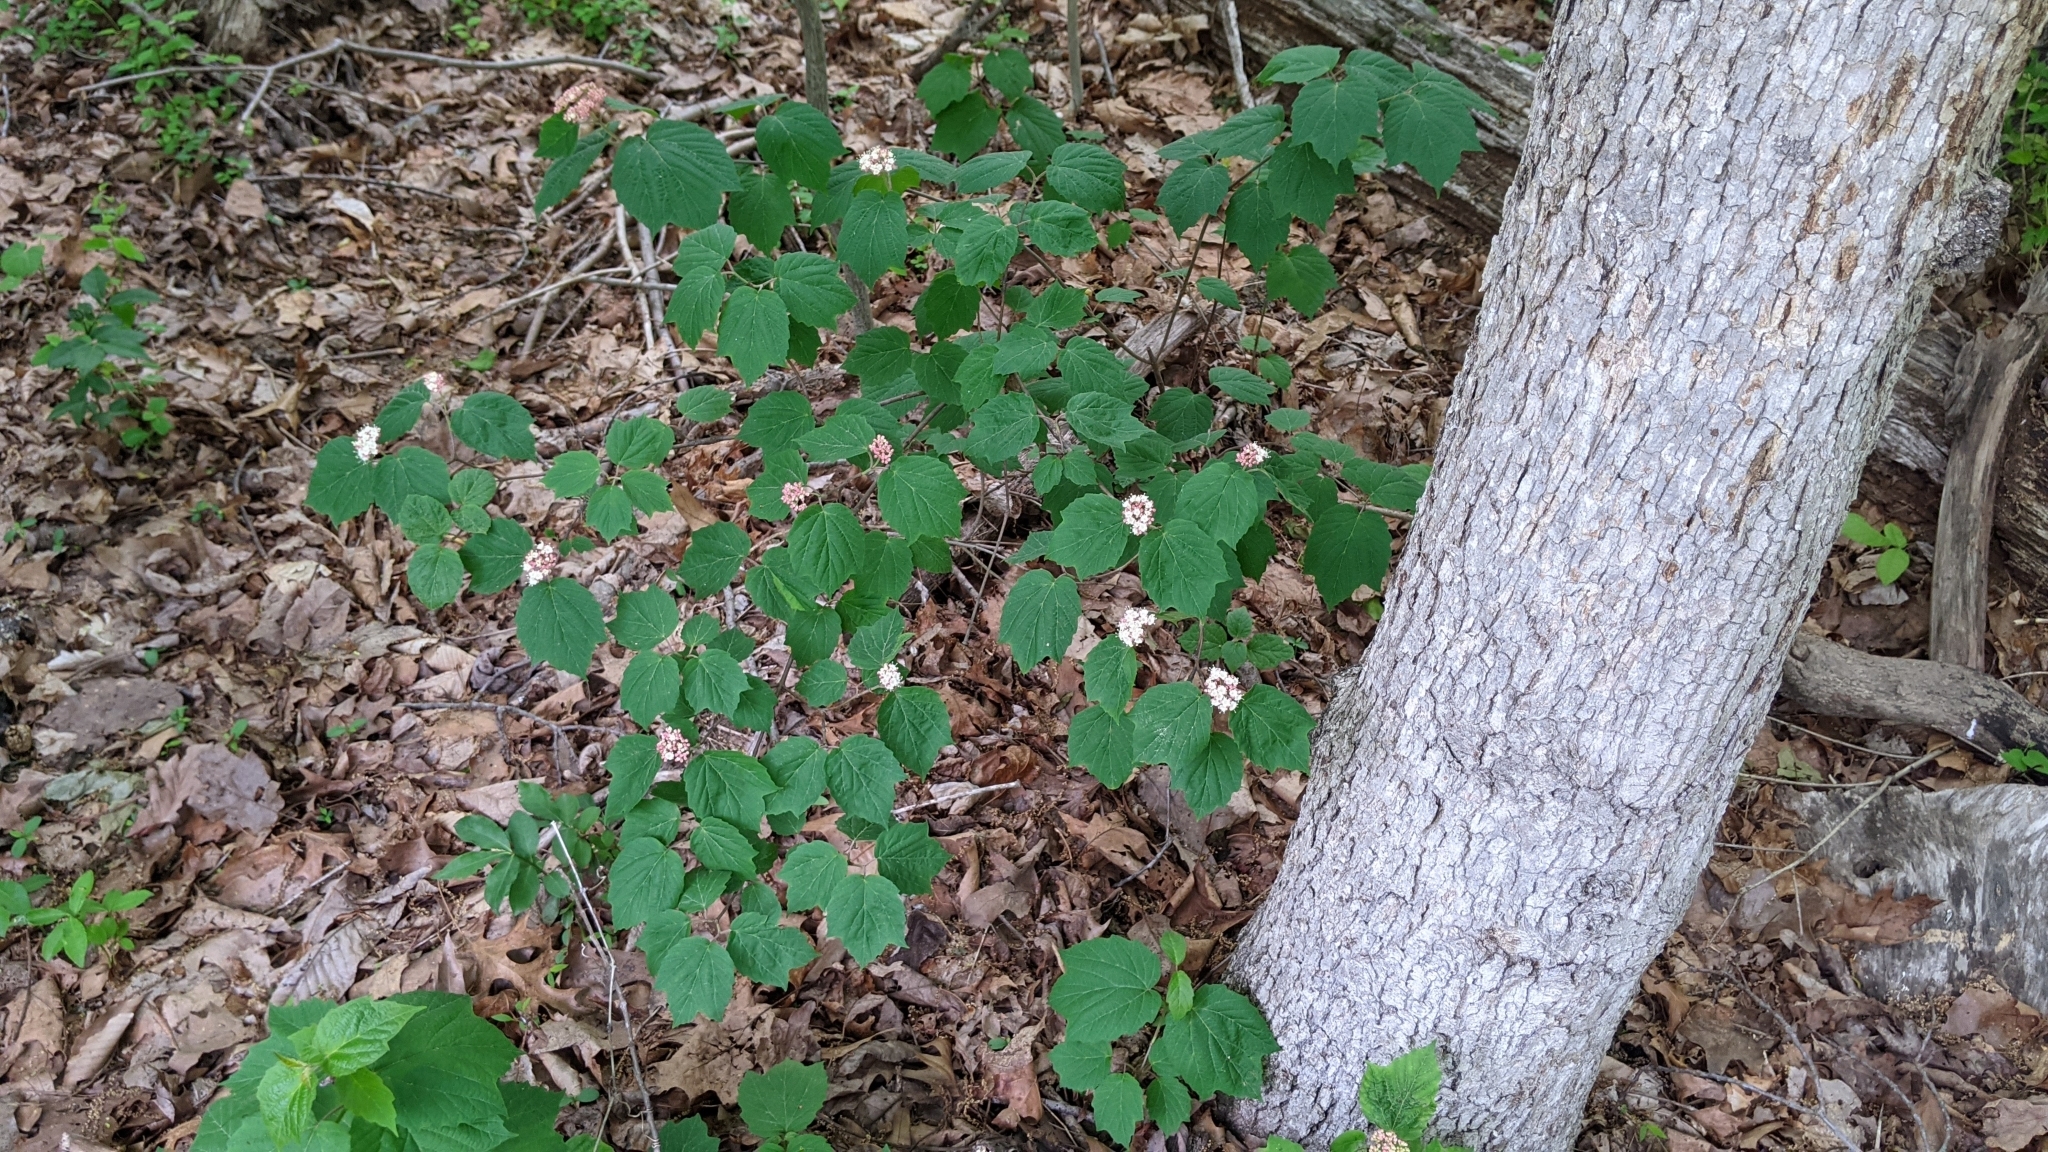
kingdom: Plantae
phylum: Tracheophyta
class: Magnoliopsida
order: Dipsacales
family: Viburnaceae
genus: Viburnum
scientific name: Viburnum acerifolium
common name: Dockmackie
